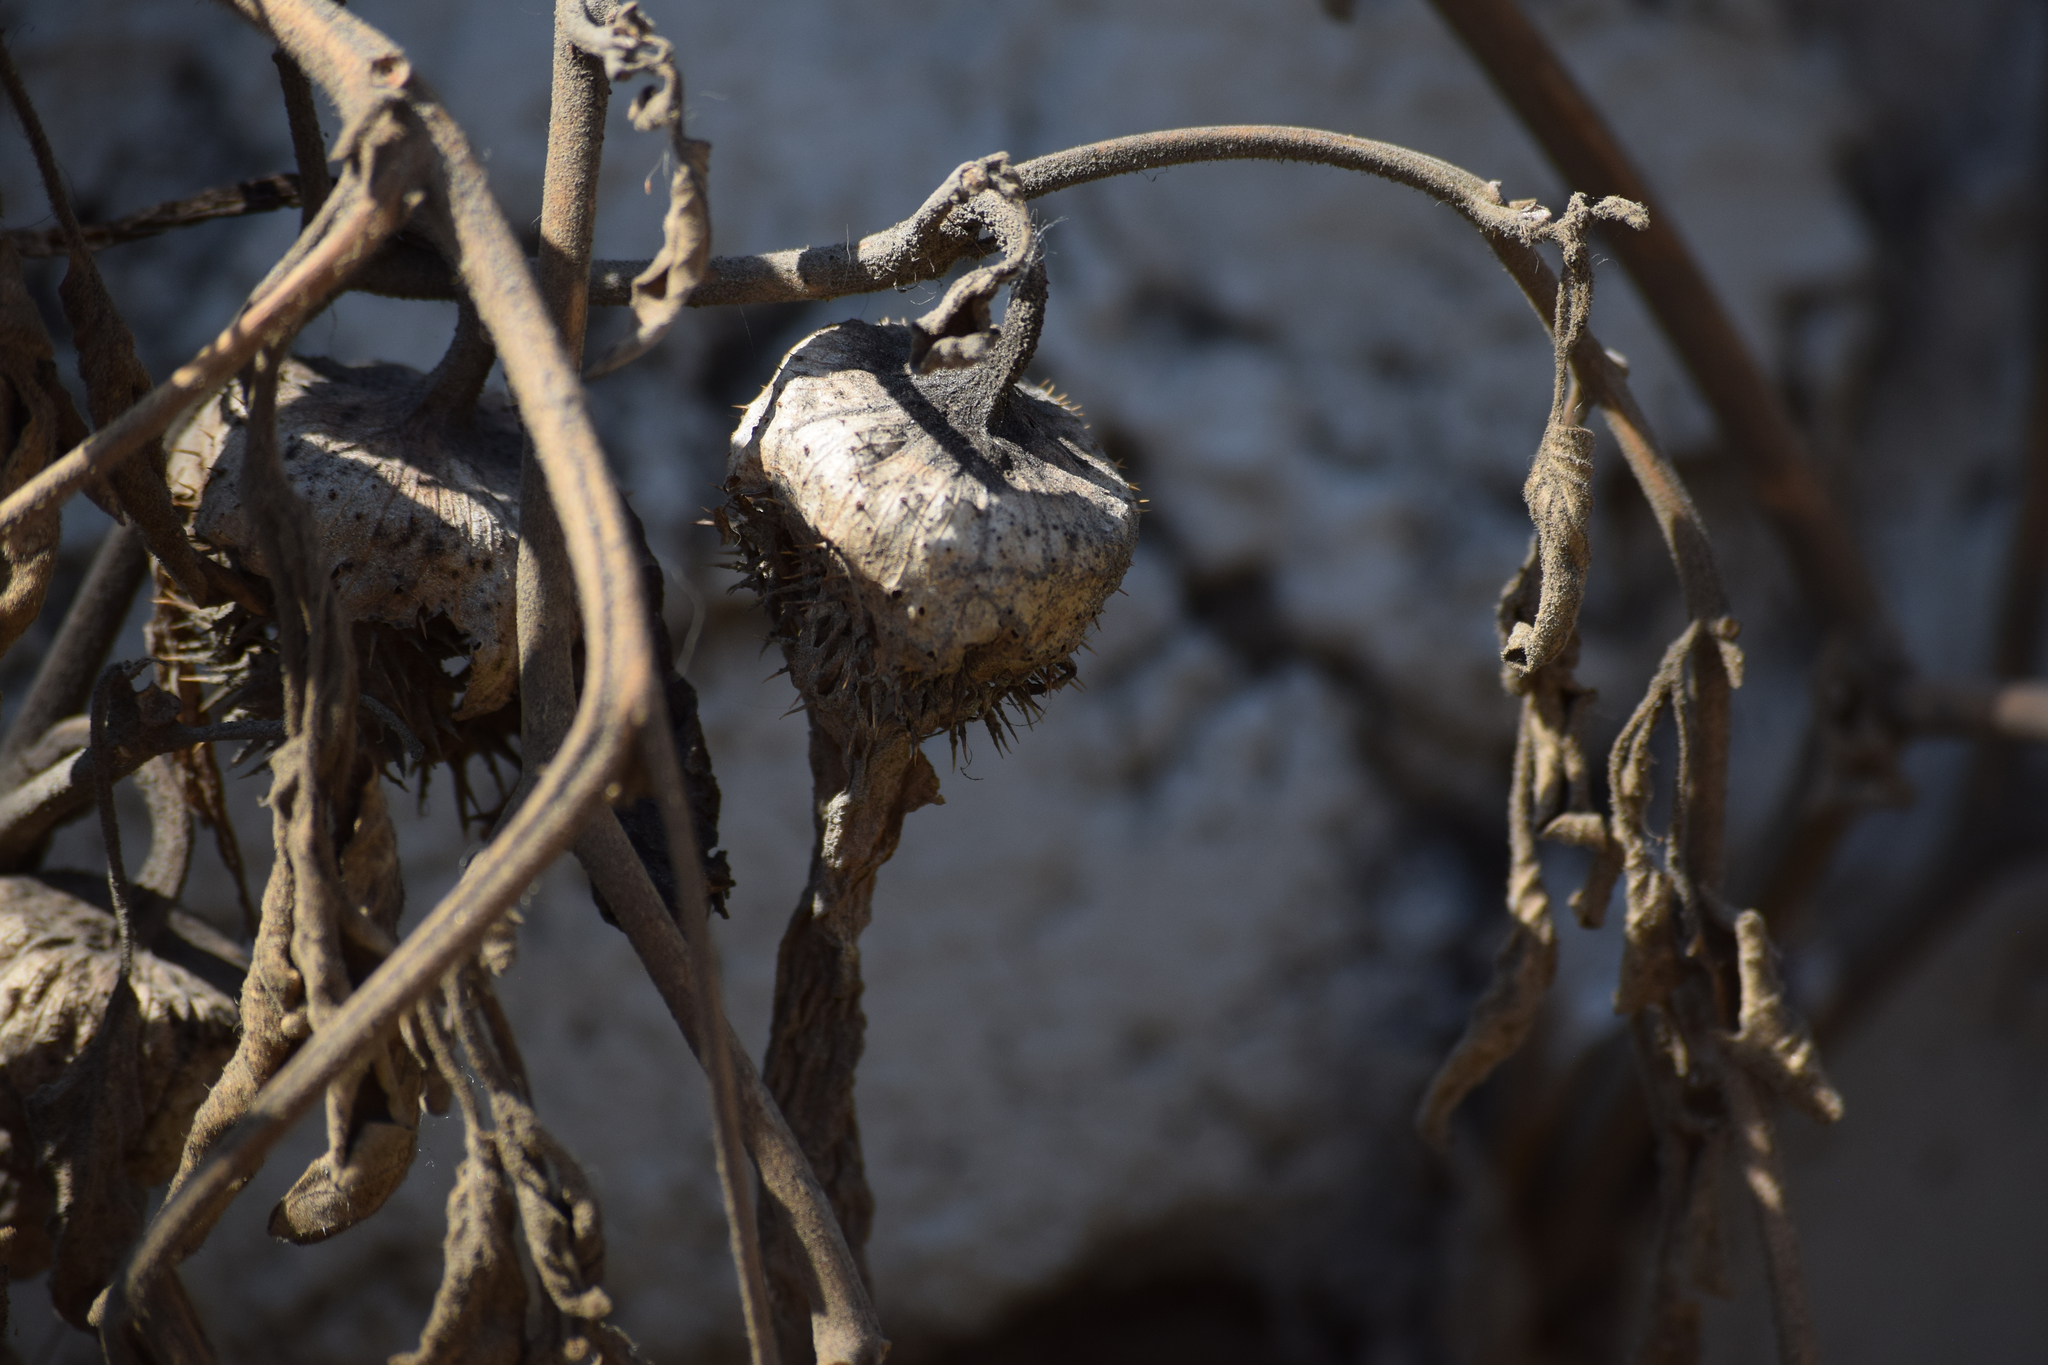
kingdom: Plantae
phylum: Tracheophyta
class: Magnoliopsida
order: Solanales
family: Solanaceae
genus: Datura
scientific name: Datura wrightii
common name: Sacred thorn-apple
